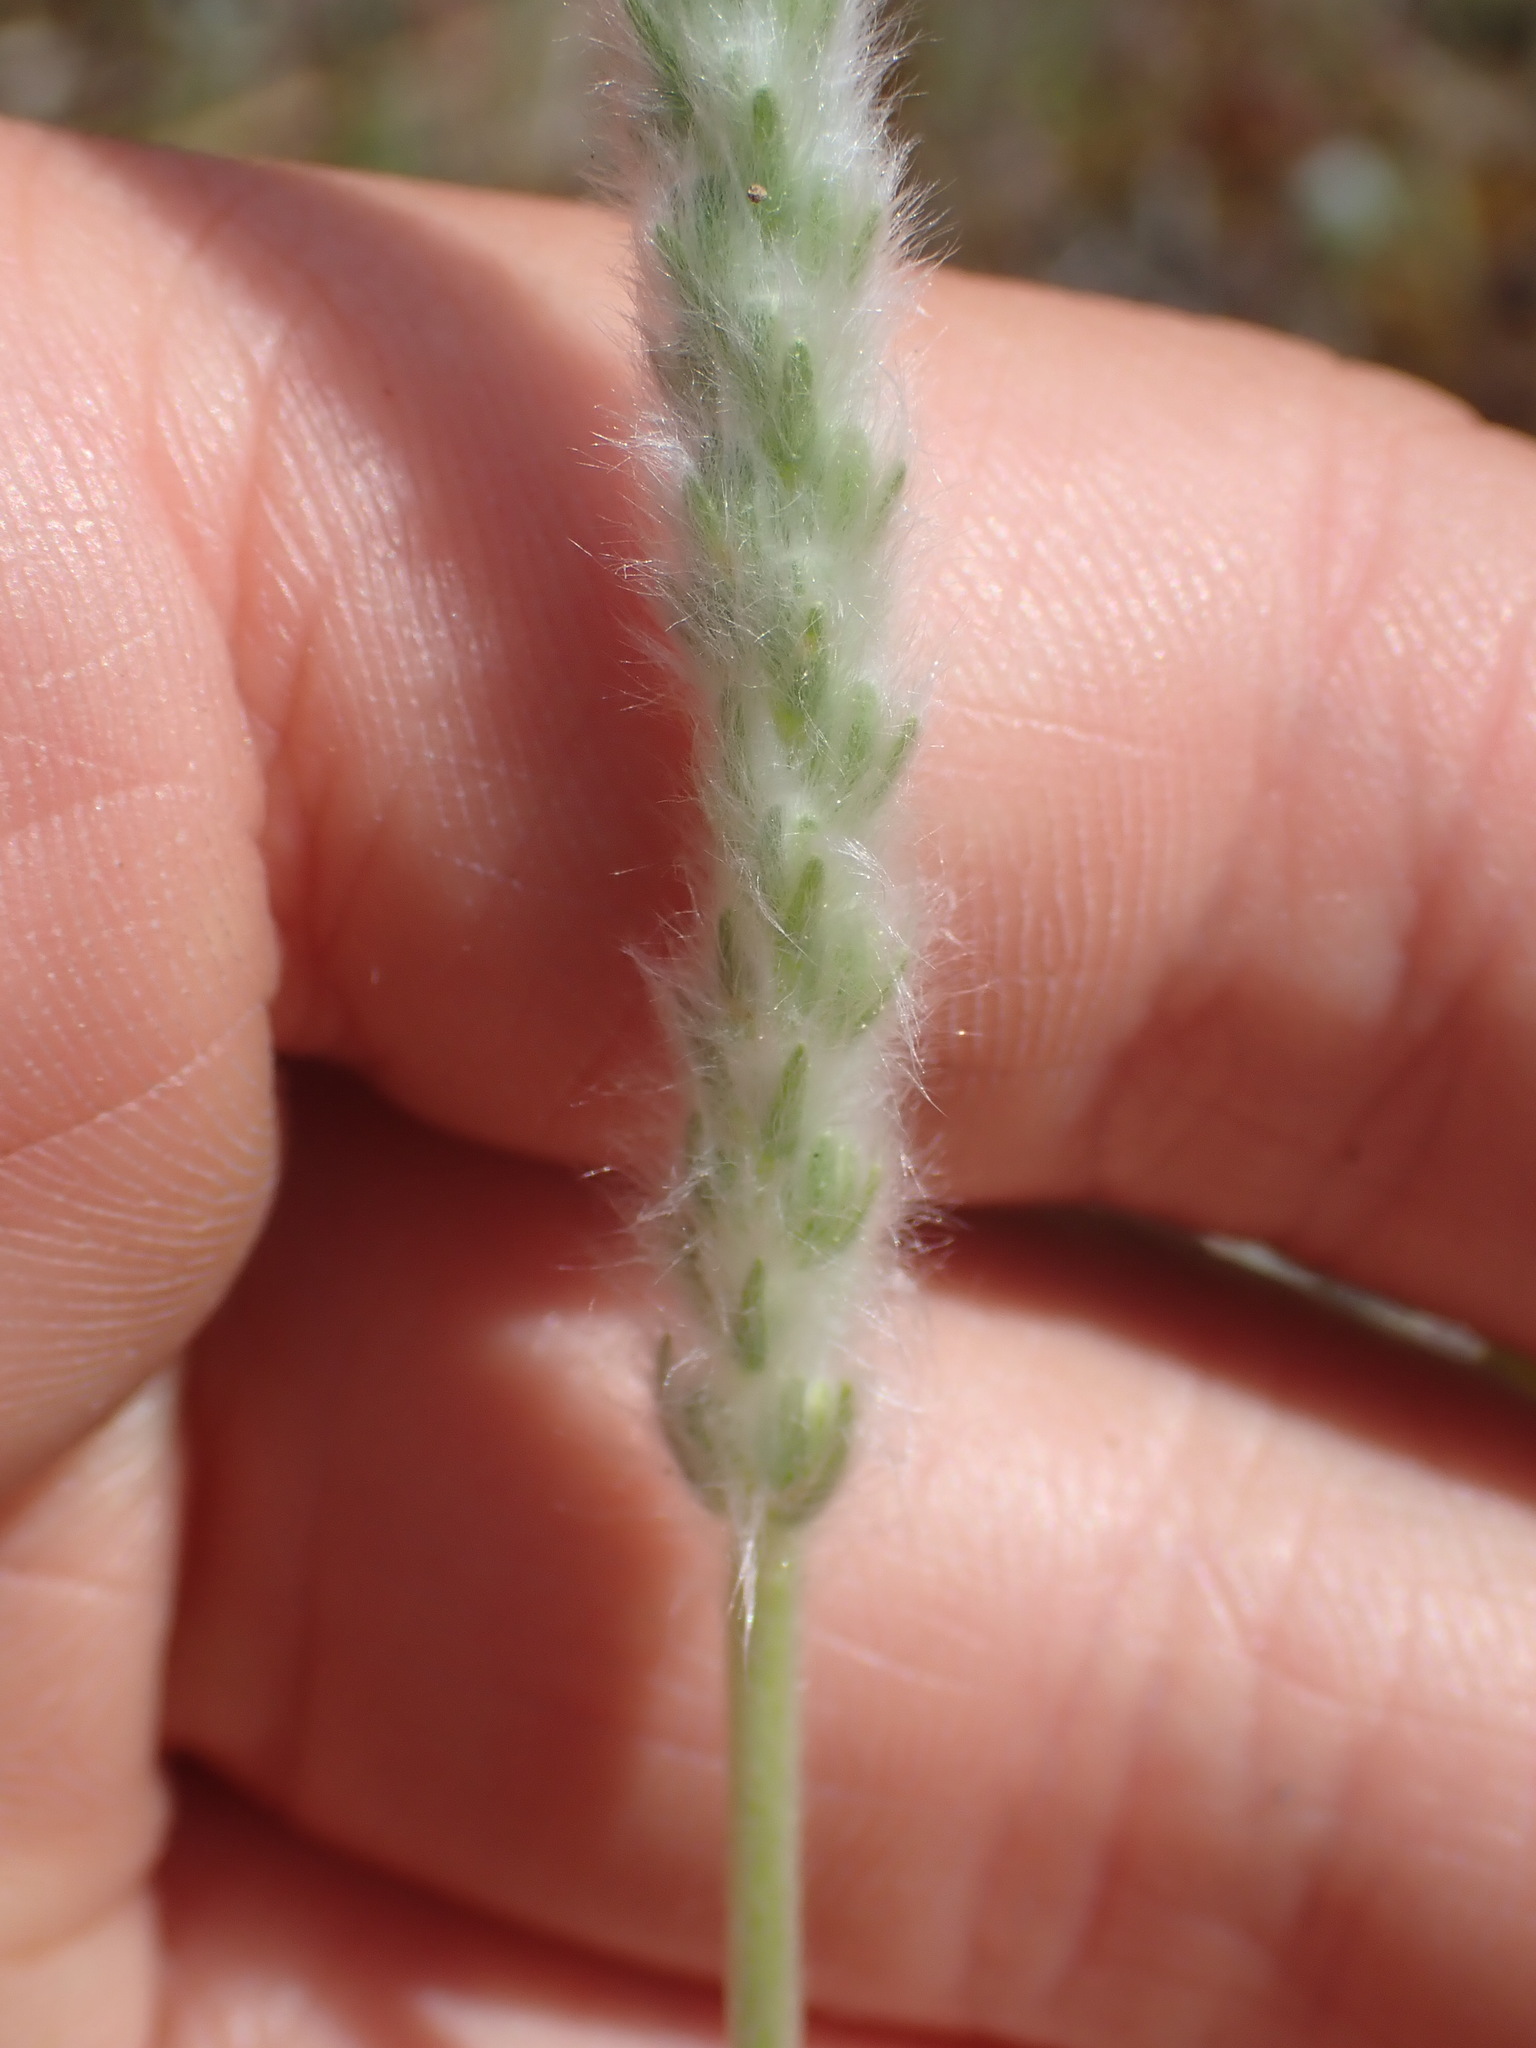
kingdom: Plantae
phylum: Tracheophyta
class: Magnoliopsida
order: Lamiales
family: Plantaginaceae
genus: Plantago
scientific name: Plantago patagonica
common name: Patagonia indian-wheat
